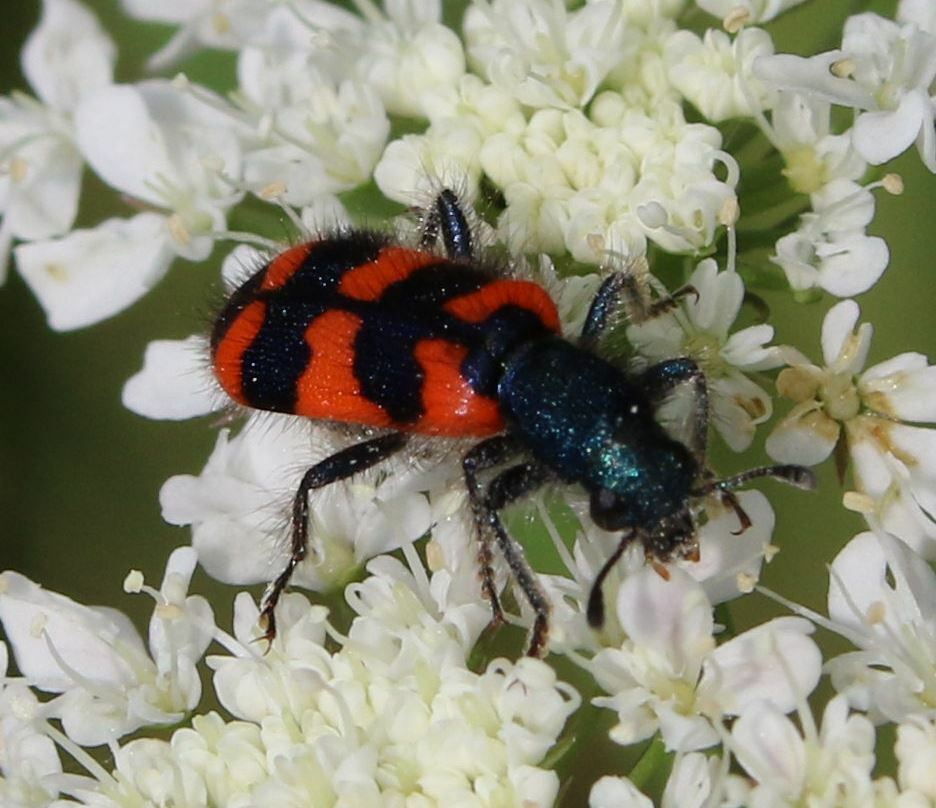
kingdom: Animalia
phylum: Arthropoda
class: Insecta
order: Coleoptera
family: Cleridae
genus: Trichodes
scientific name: Trichodes alvearius
